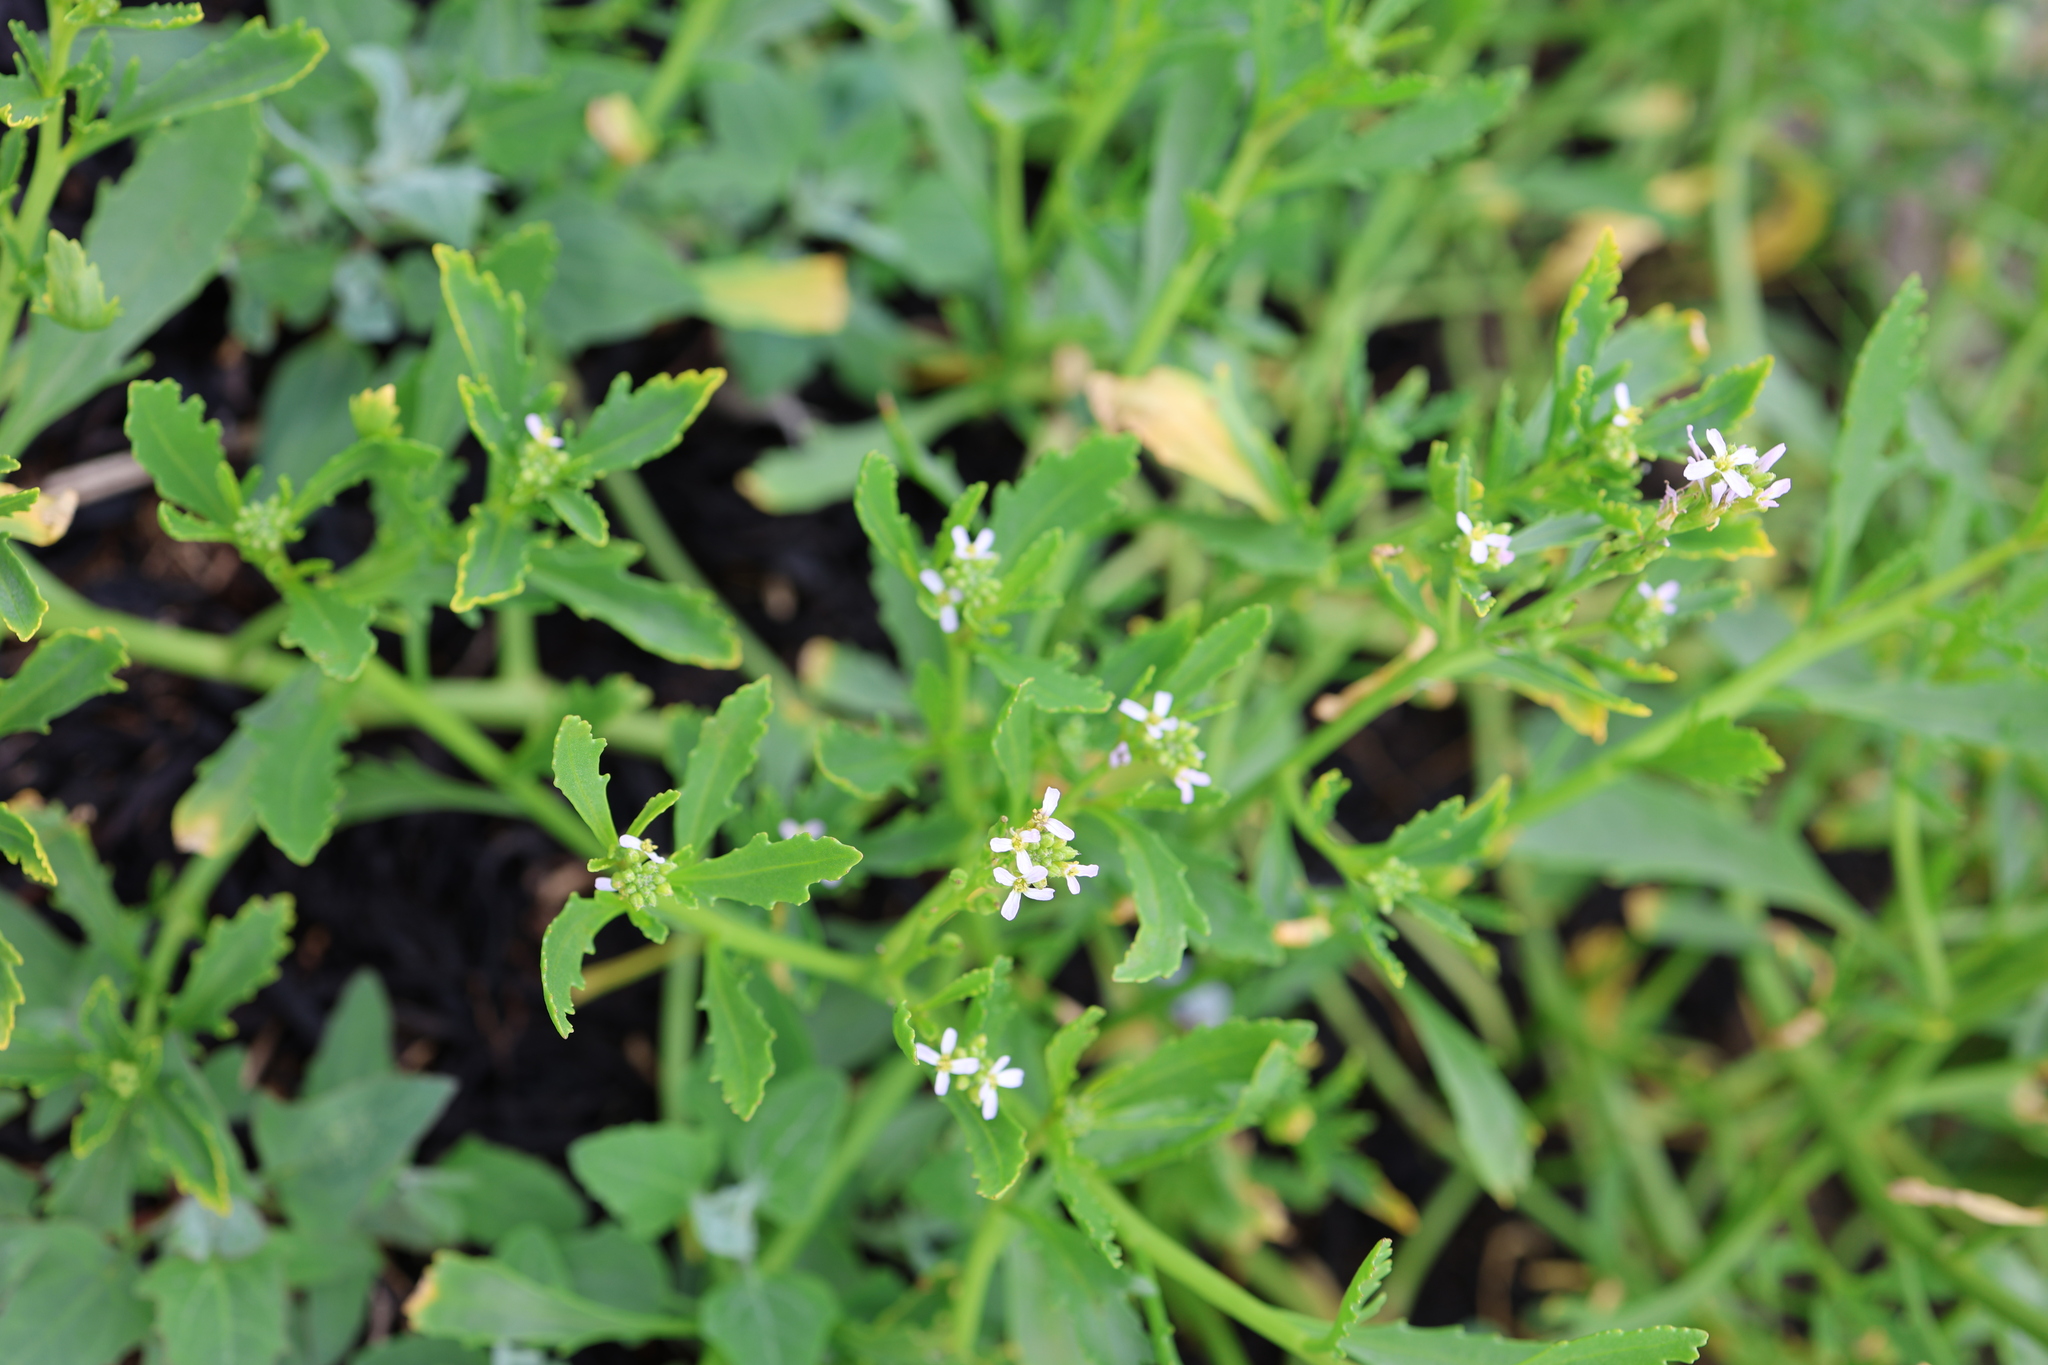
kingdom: Plantae
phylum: Tracheophyta
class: Magnoliopsida
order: Brassicales
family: Brassicaceae
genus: Cakile
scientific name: Cakile edentula
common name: American sea rocket
